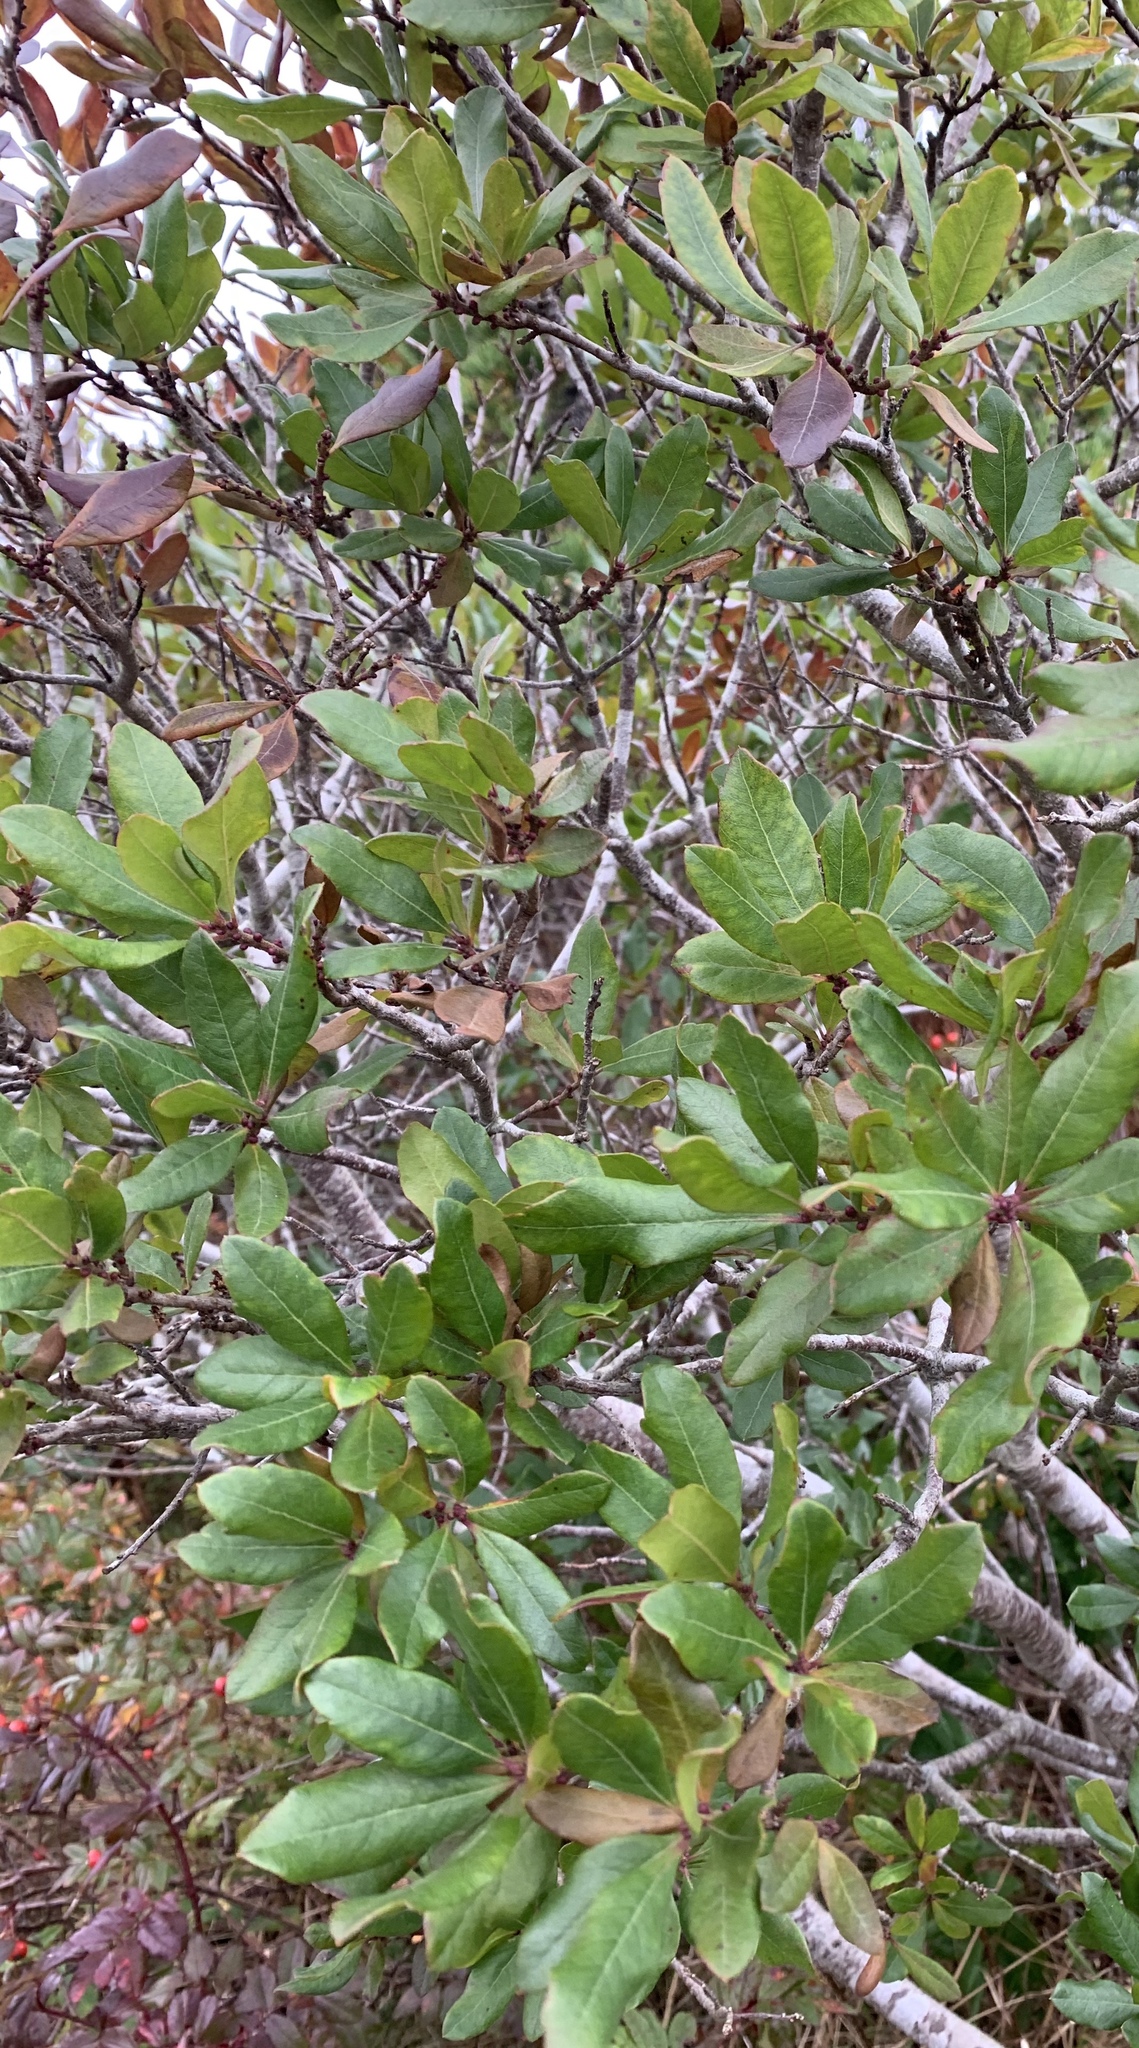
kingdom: Plantae
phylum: Tracheophyta
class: Magnoliopsida
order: Fagales
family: Myricaceae
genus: Morella
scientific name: Morella pensylvanica
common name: Northern bayberry
